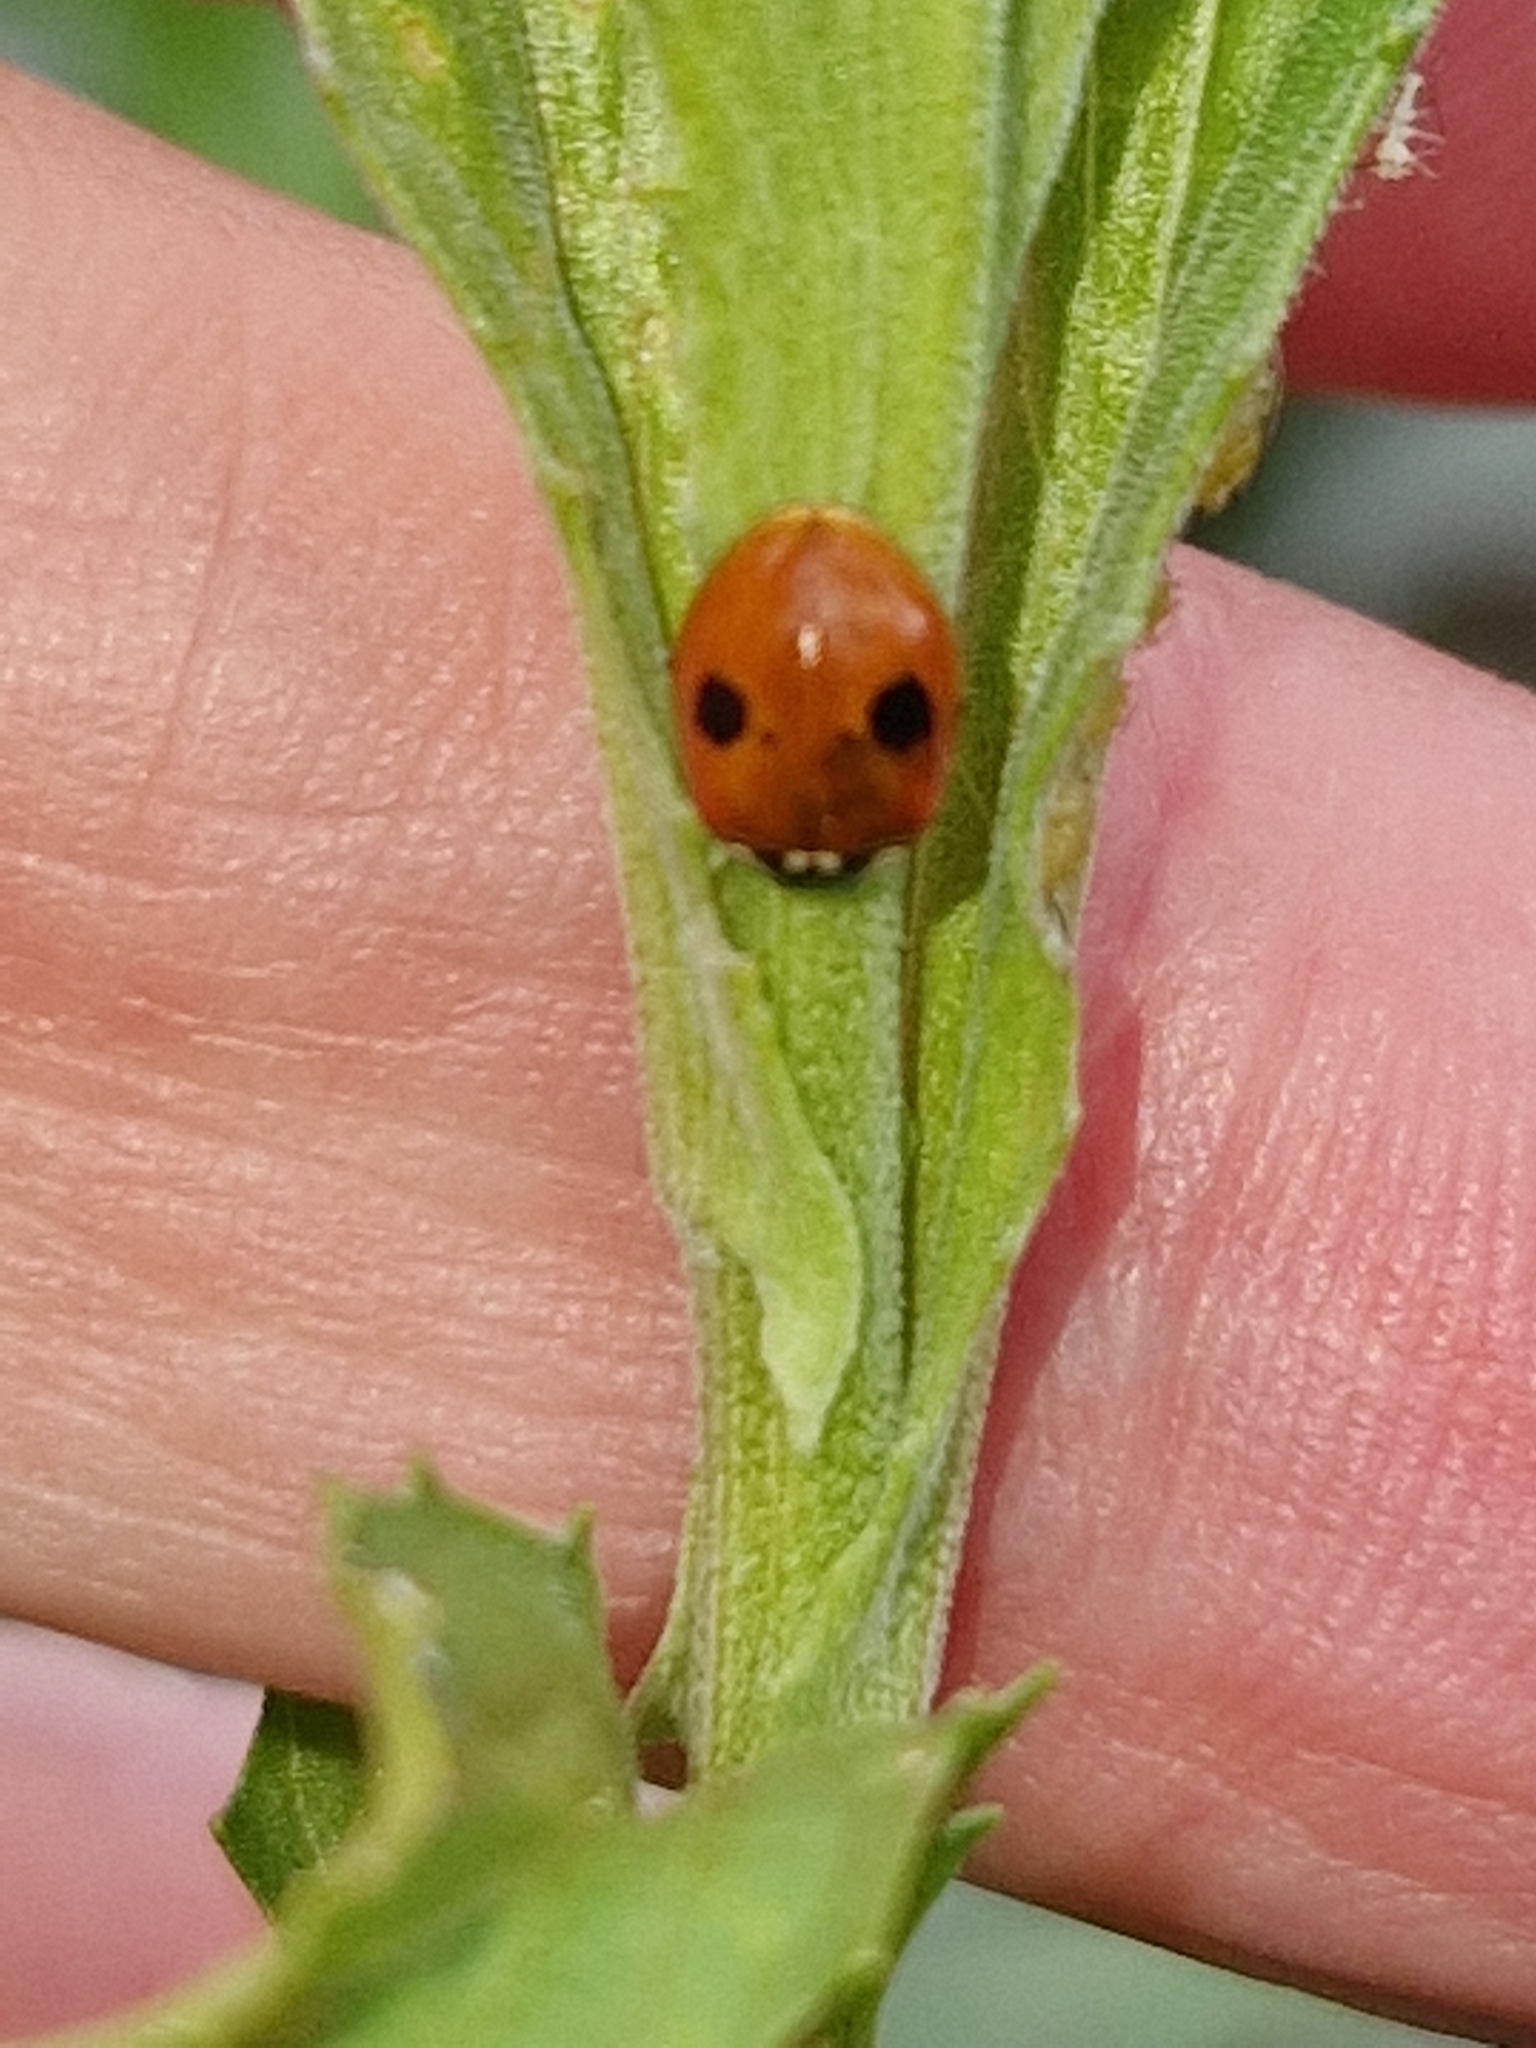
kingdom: Animalia
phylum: Arthropoda
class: Insecta
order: Coleoptera
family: Coccinellidae
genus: Adalia
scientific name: Adalia bipunctata
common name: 2-spot ladybird
